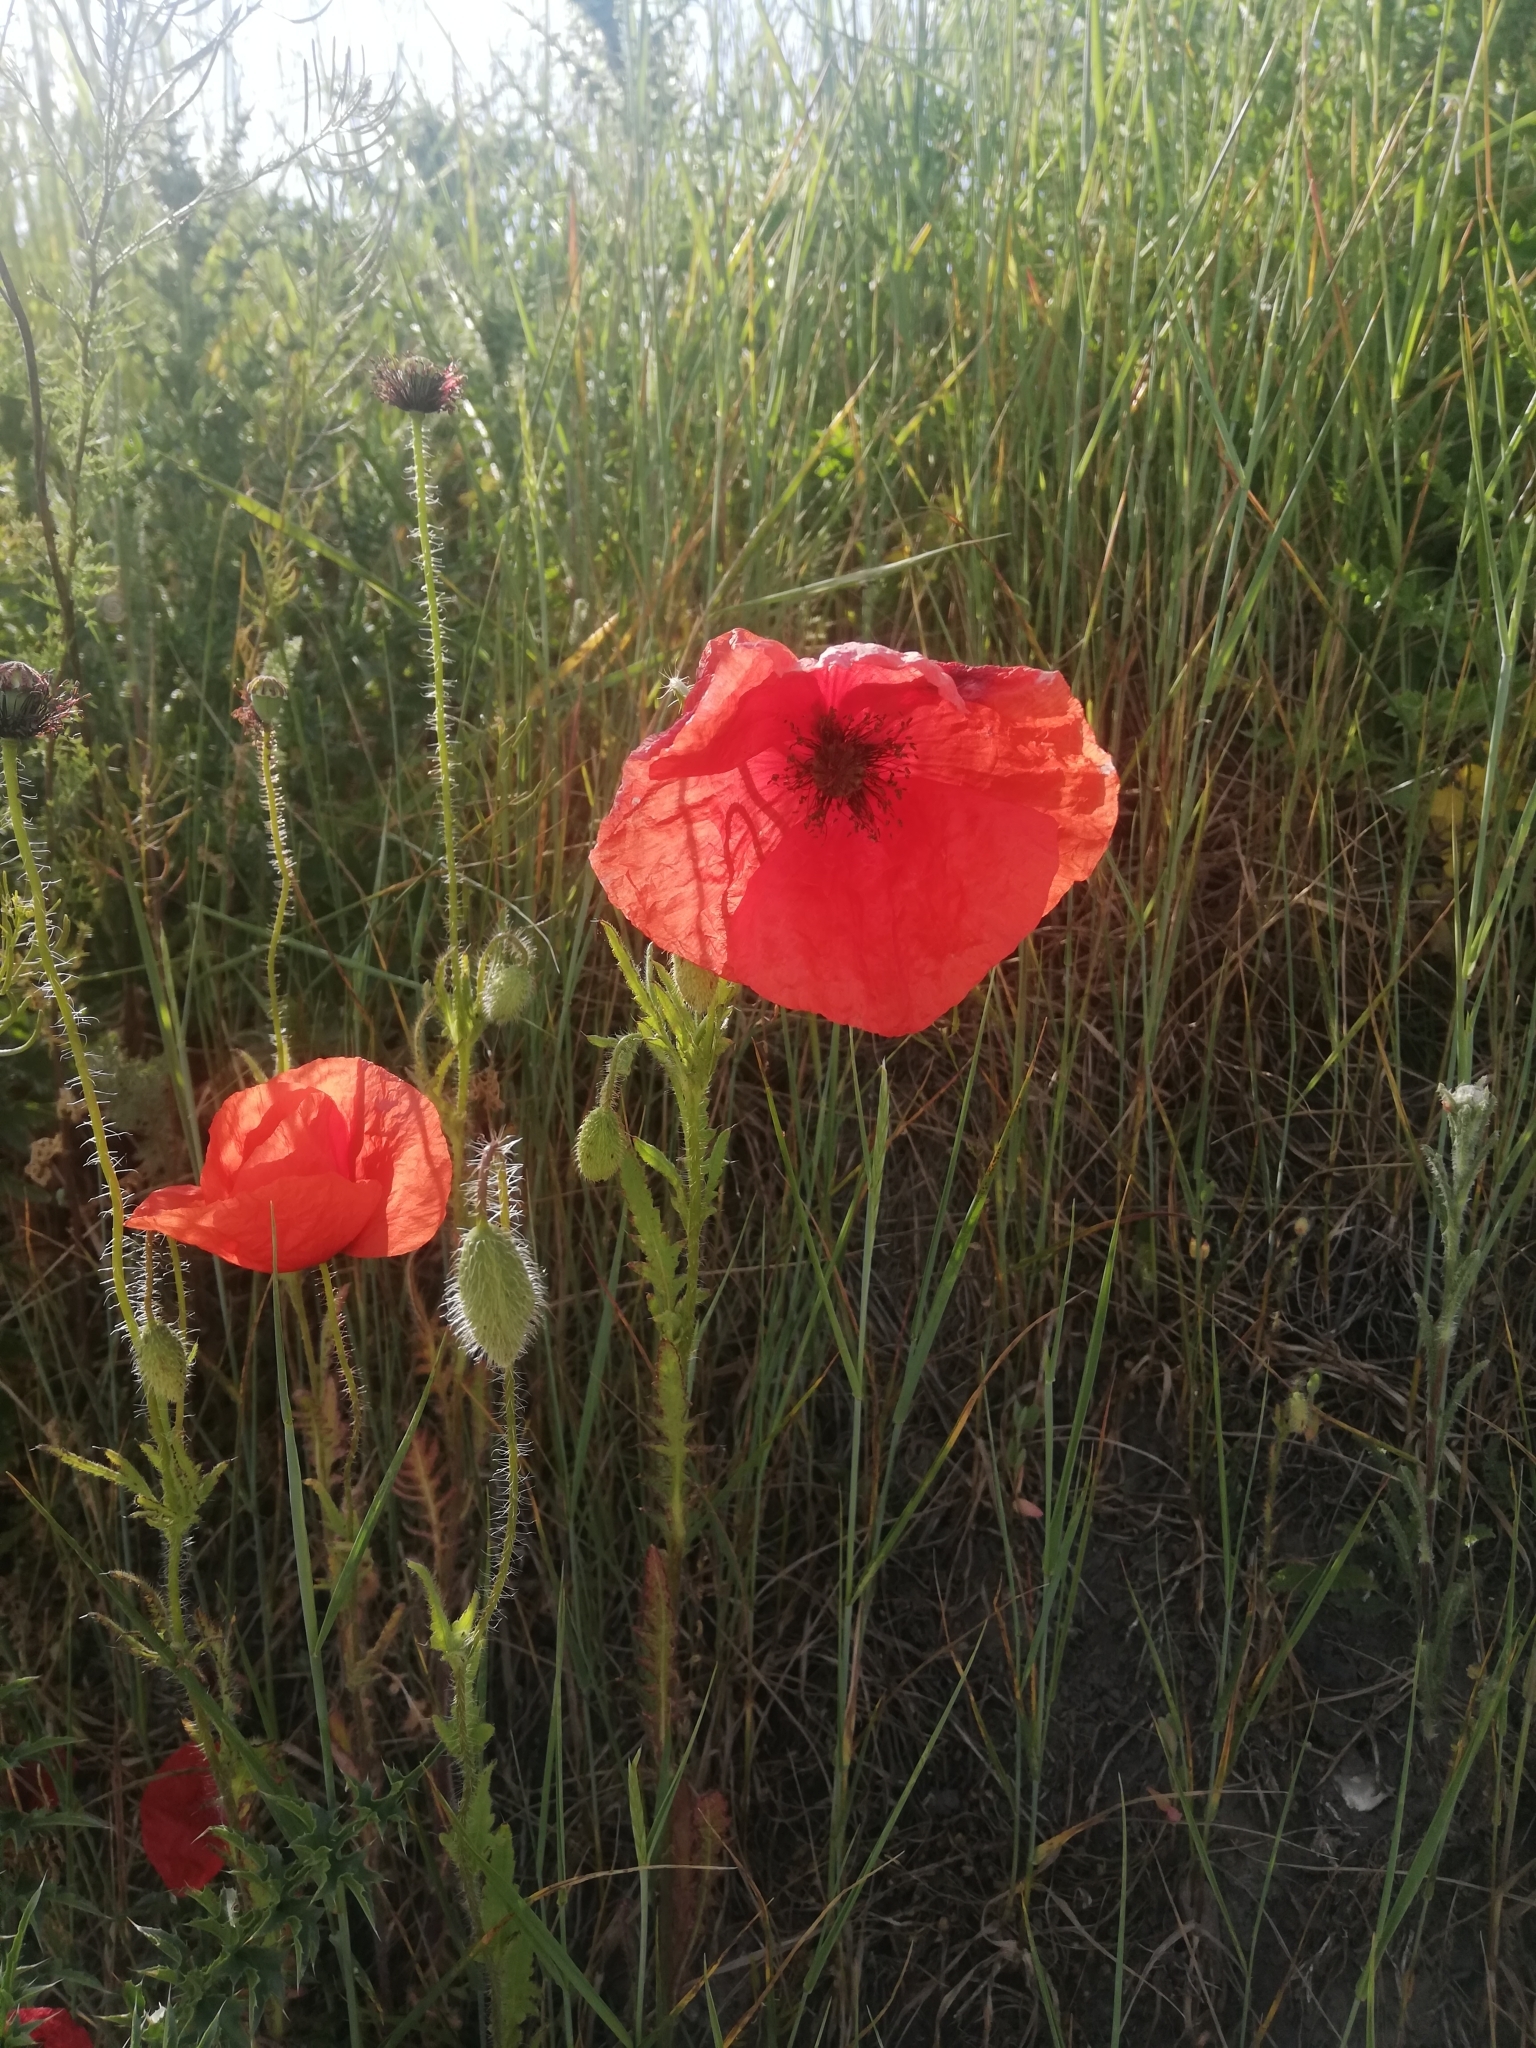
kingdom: Plantae
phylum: Tracheophyta
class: Magnoliopsida
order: Ranunculales
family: Papaveraceae
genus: Papaver
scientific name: Papaver rhoeas
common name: Corn poppy
